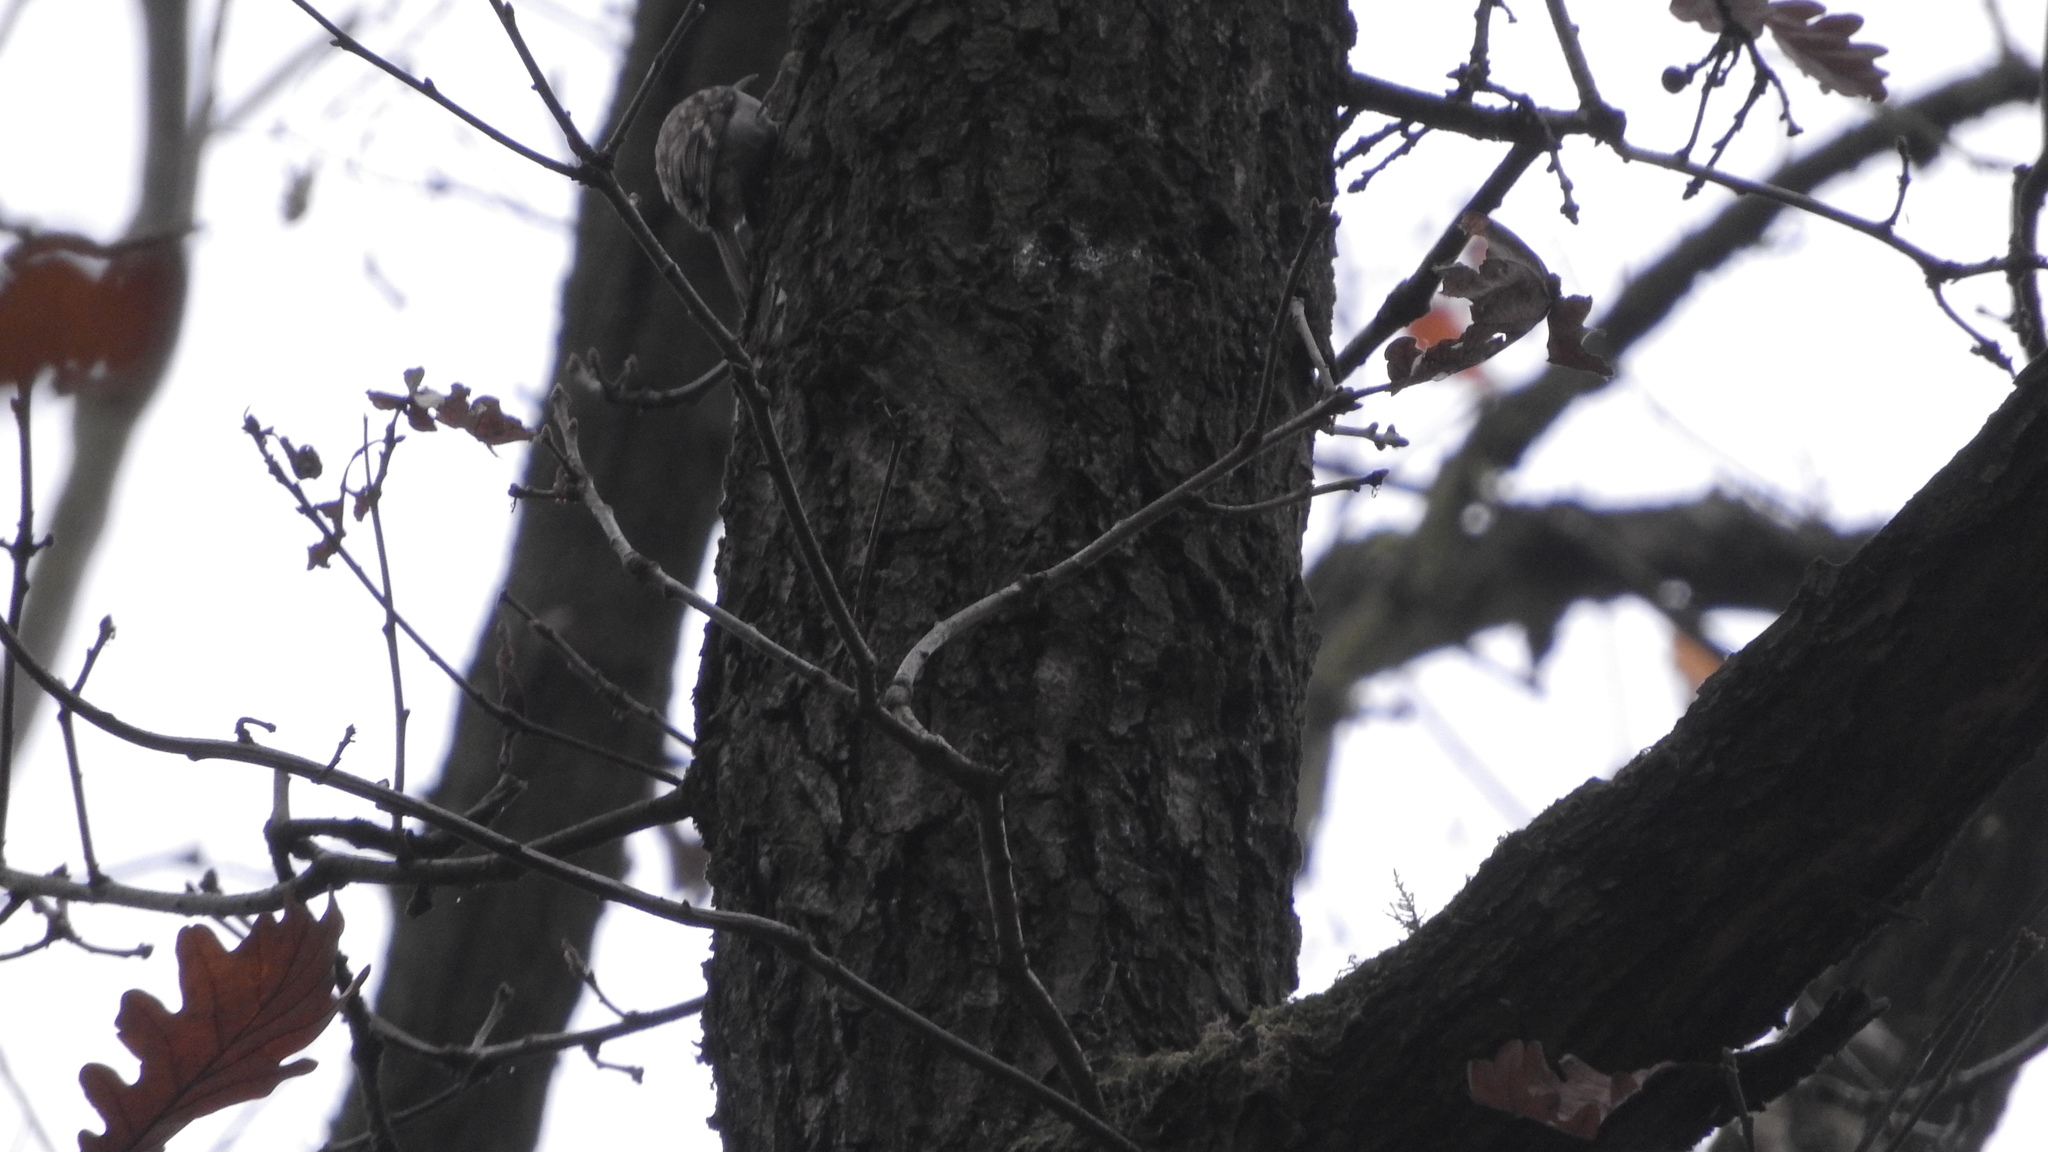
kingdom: Animalia
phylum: Chordata
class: Aves
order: Passeriformes
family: Certhiidae
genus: Certhia
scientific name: Certhia
